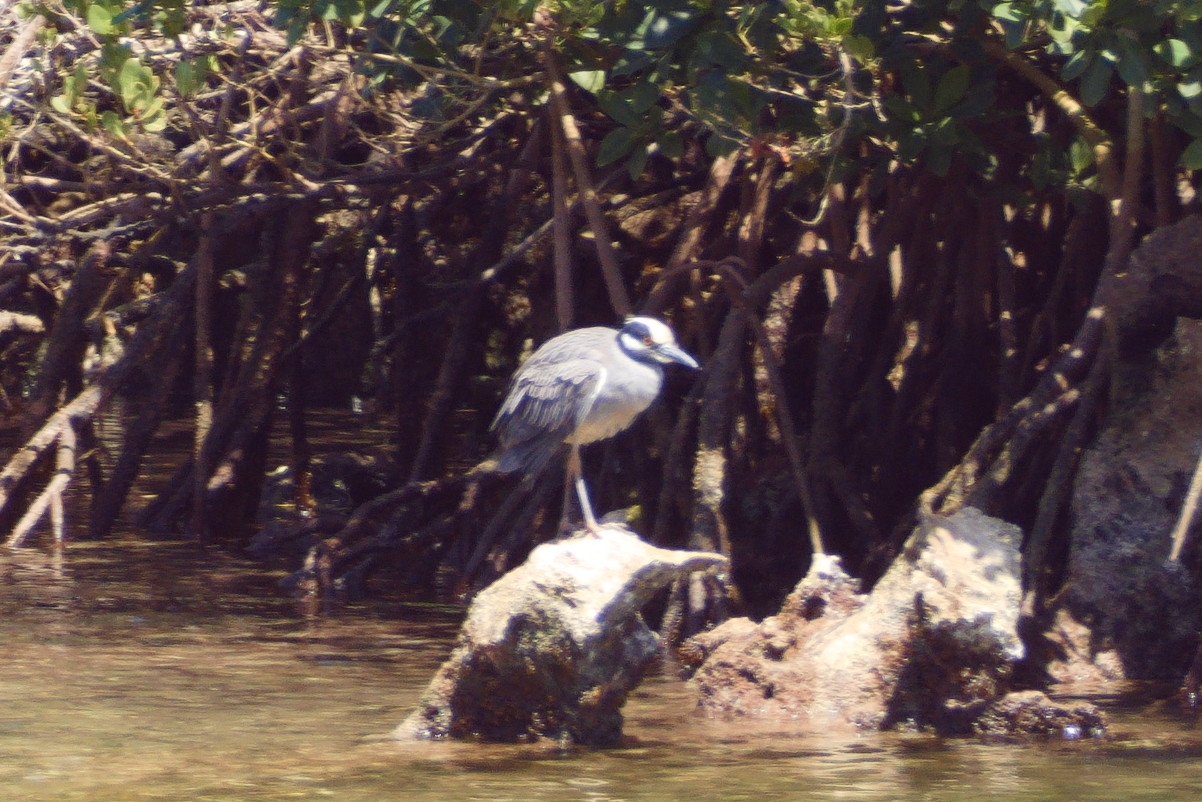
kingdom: Animalia
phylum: Chordata
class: Aves
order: Pelecaniformes
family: Ardeidae
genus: Nyctanassa
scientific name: Nyctanassa violacea
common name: Yellow-crowned night heron
